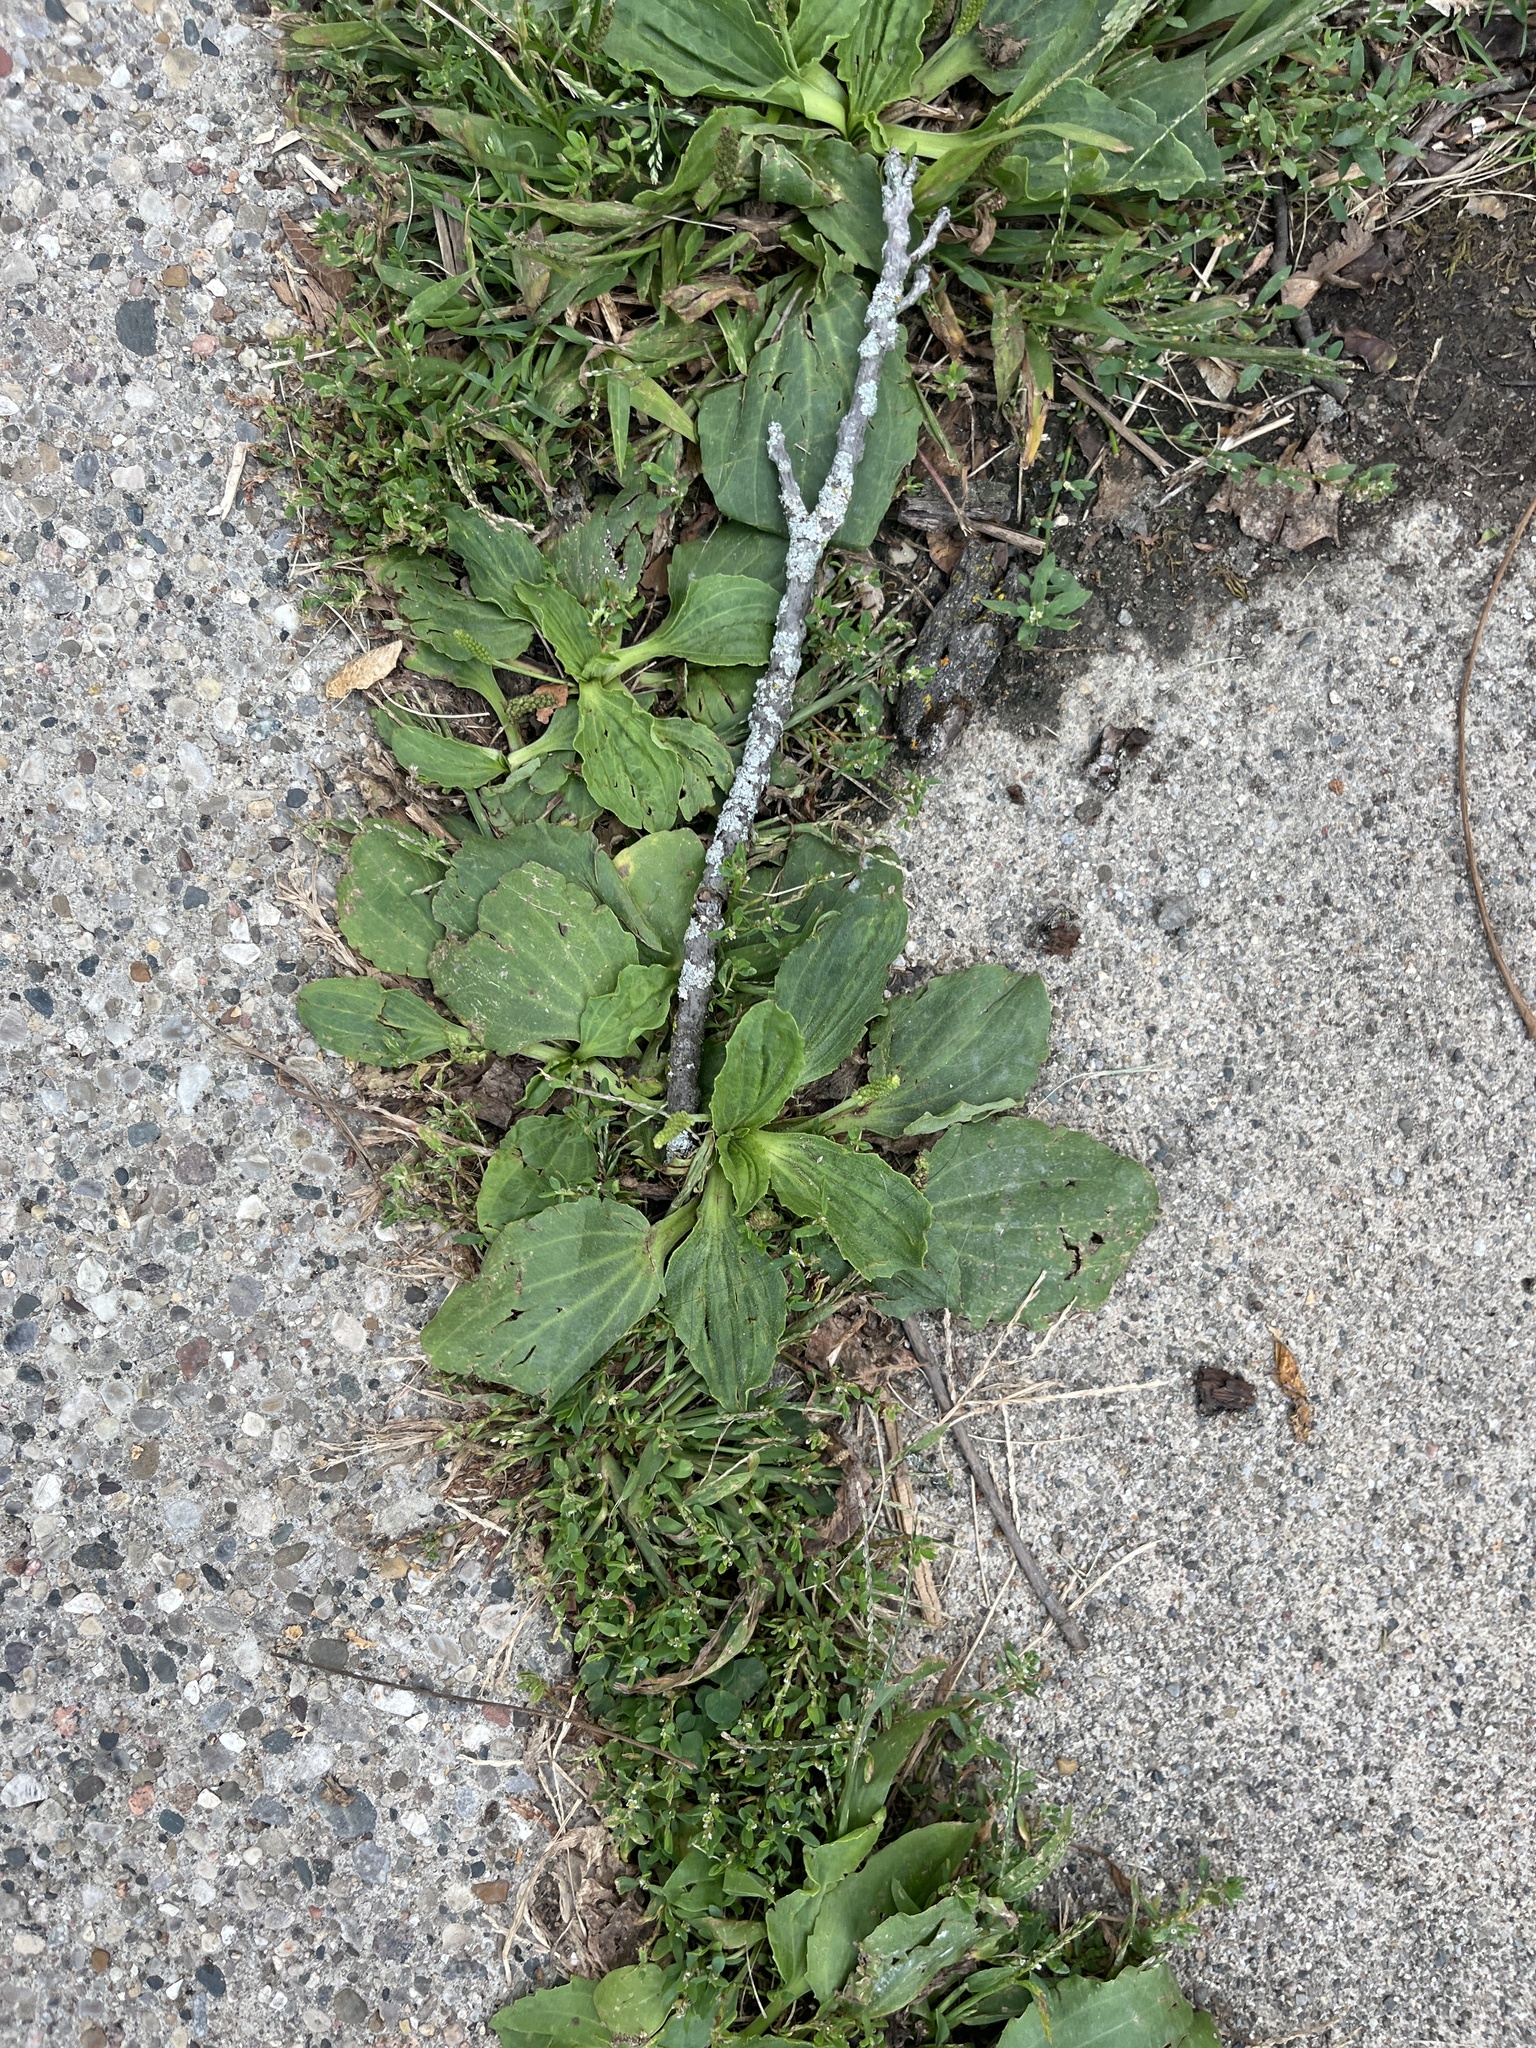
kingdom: Plantae
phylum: Tracheophyta
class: Magnoliopsida
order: Lamiales
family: Plantaginaceae
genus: Plantago
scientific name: Plantago major
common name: Common plantain
